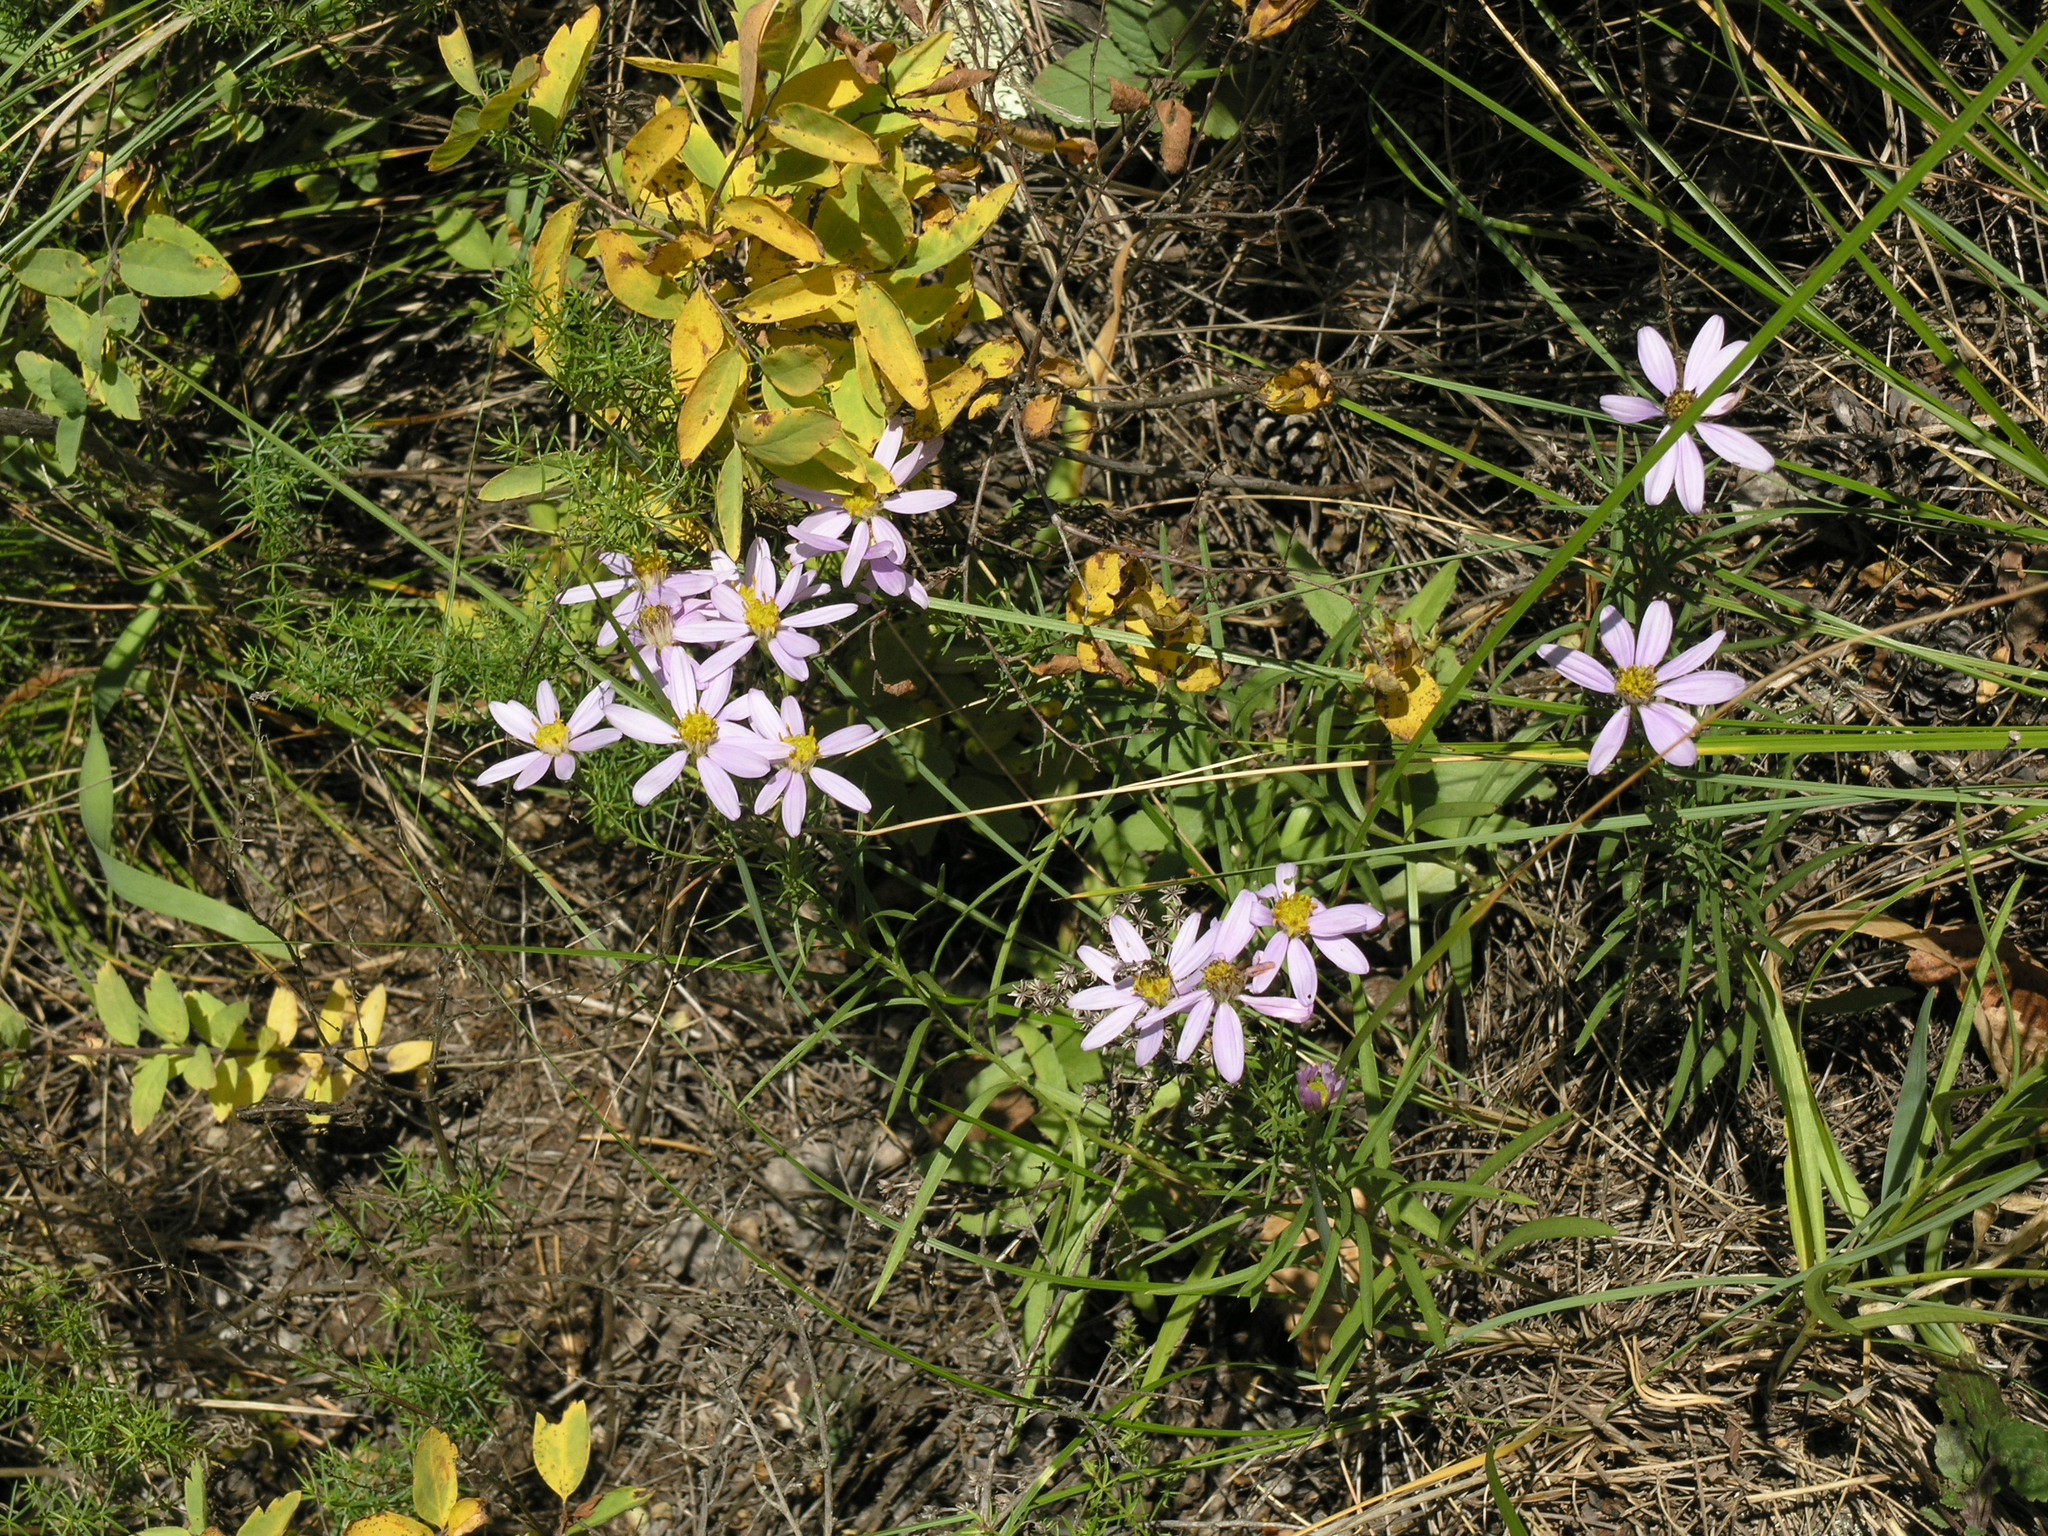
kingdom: Plantae
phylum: Tracheophyta
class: Magnoliopsida
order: Asterales
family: Asteraceae
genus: Heteropappus
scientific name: Heteropappus altaicus
